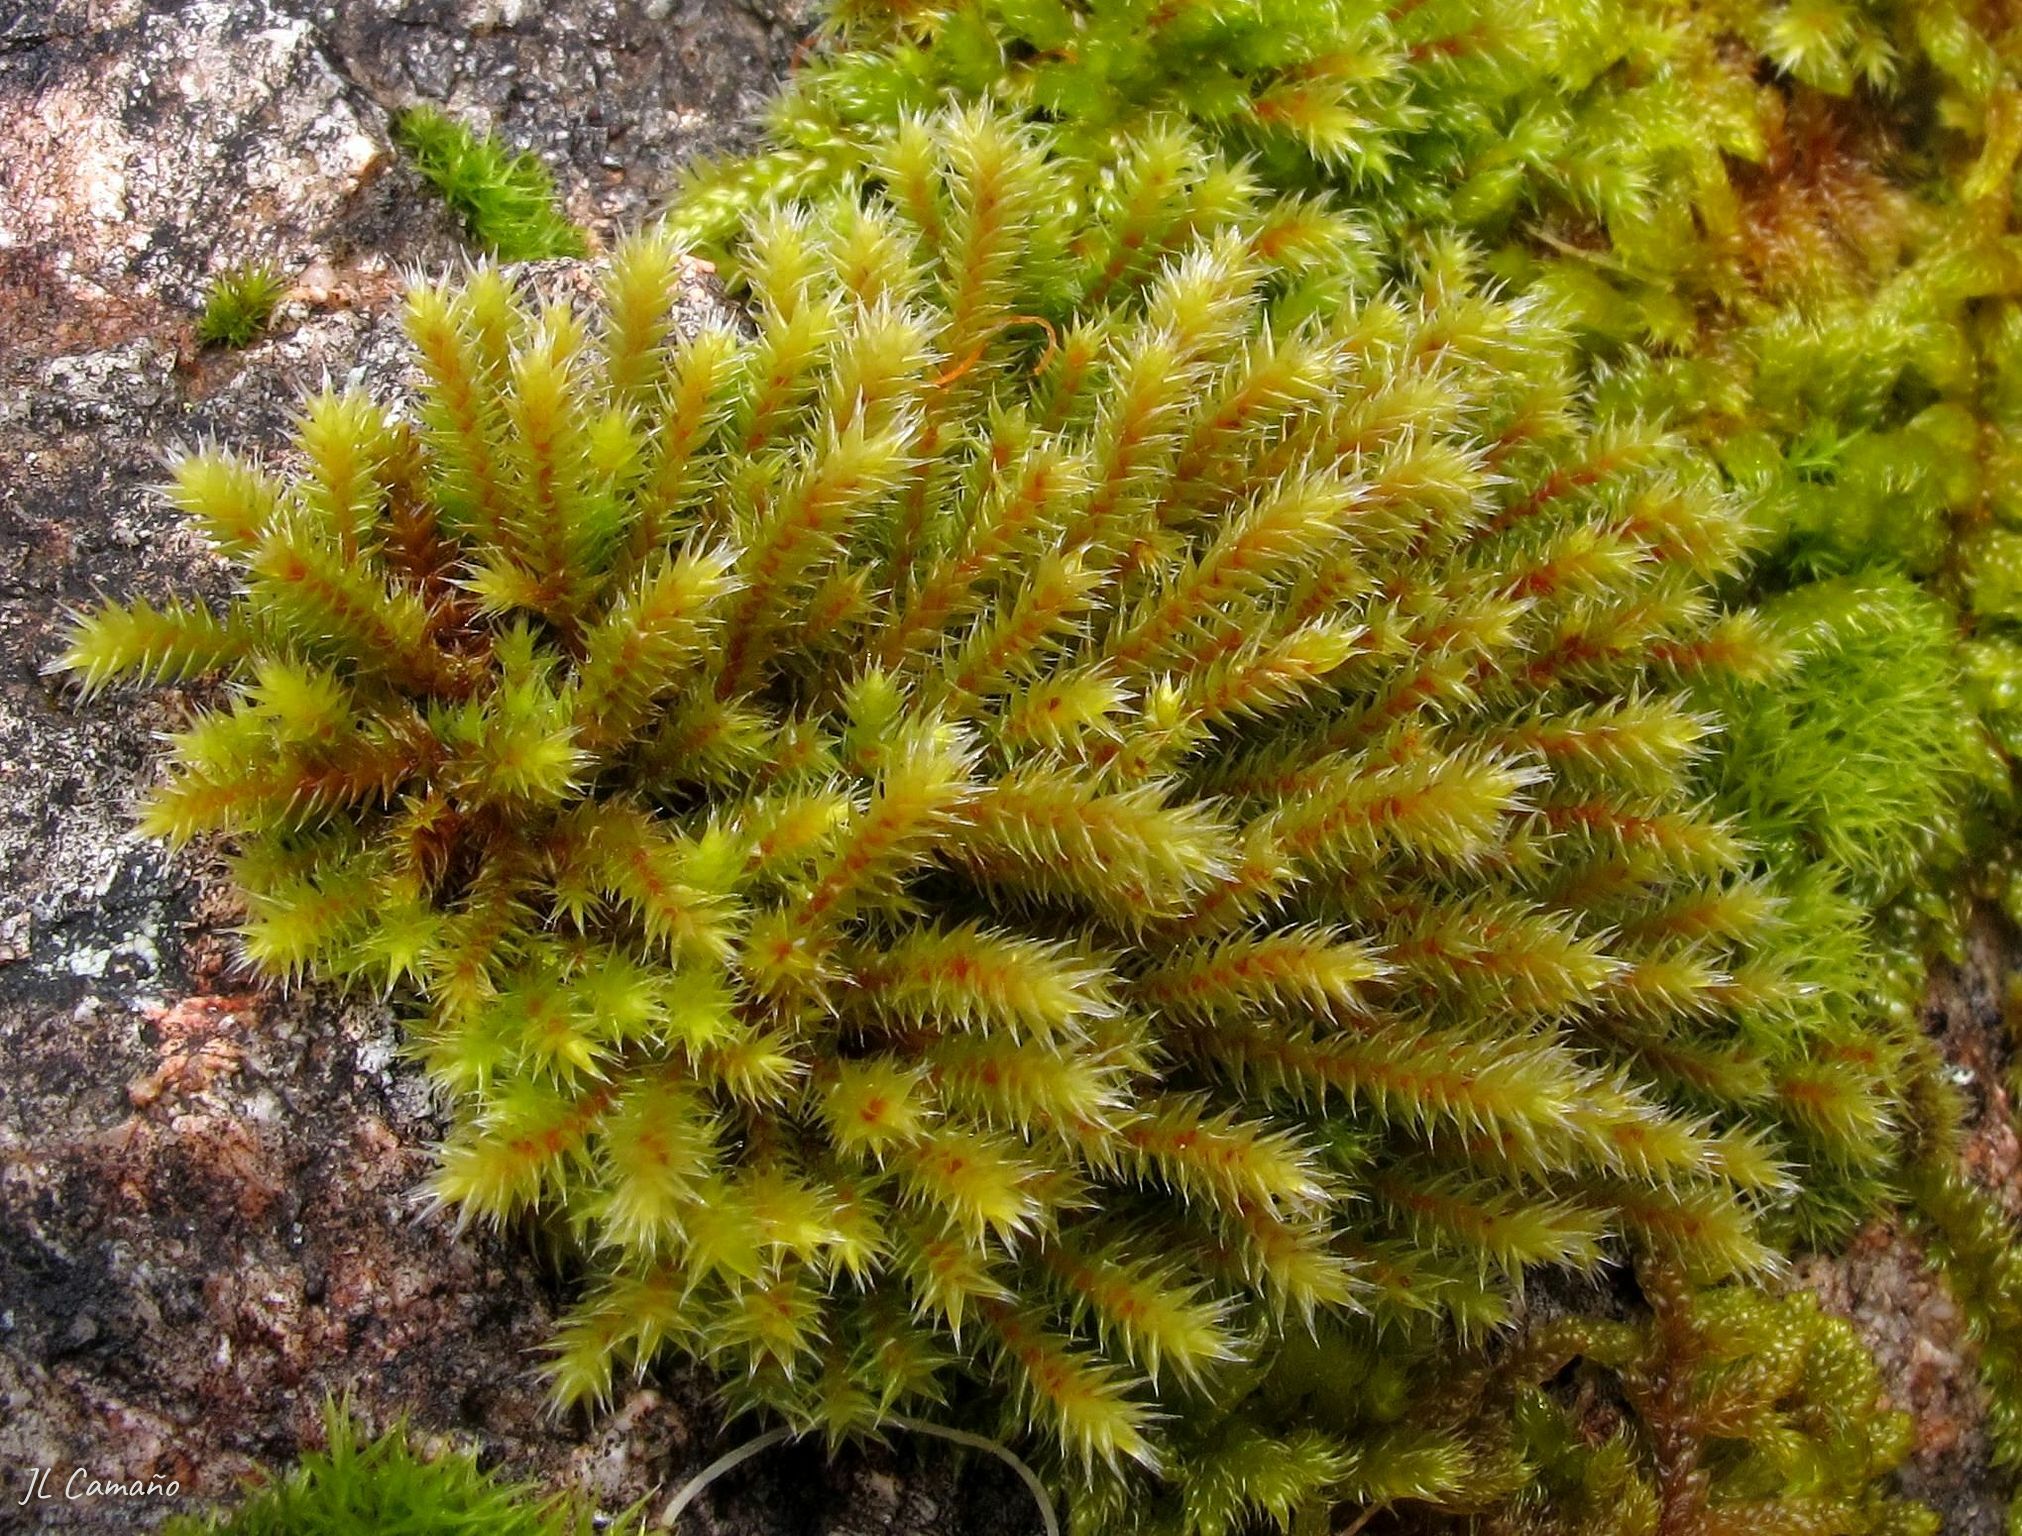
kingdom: Plantae
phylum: Bryophyta
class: Bryopsida
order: Hedwigiales
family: Hedwigiaceae
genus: Hedwigia
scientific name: Hedwigia stellata
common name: Starry hoar-moss
